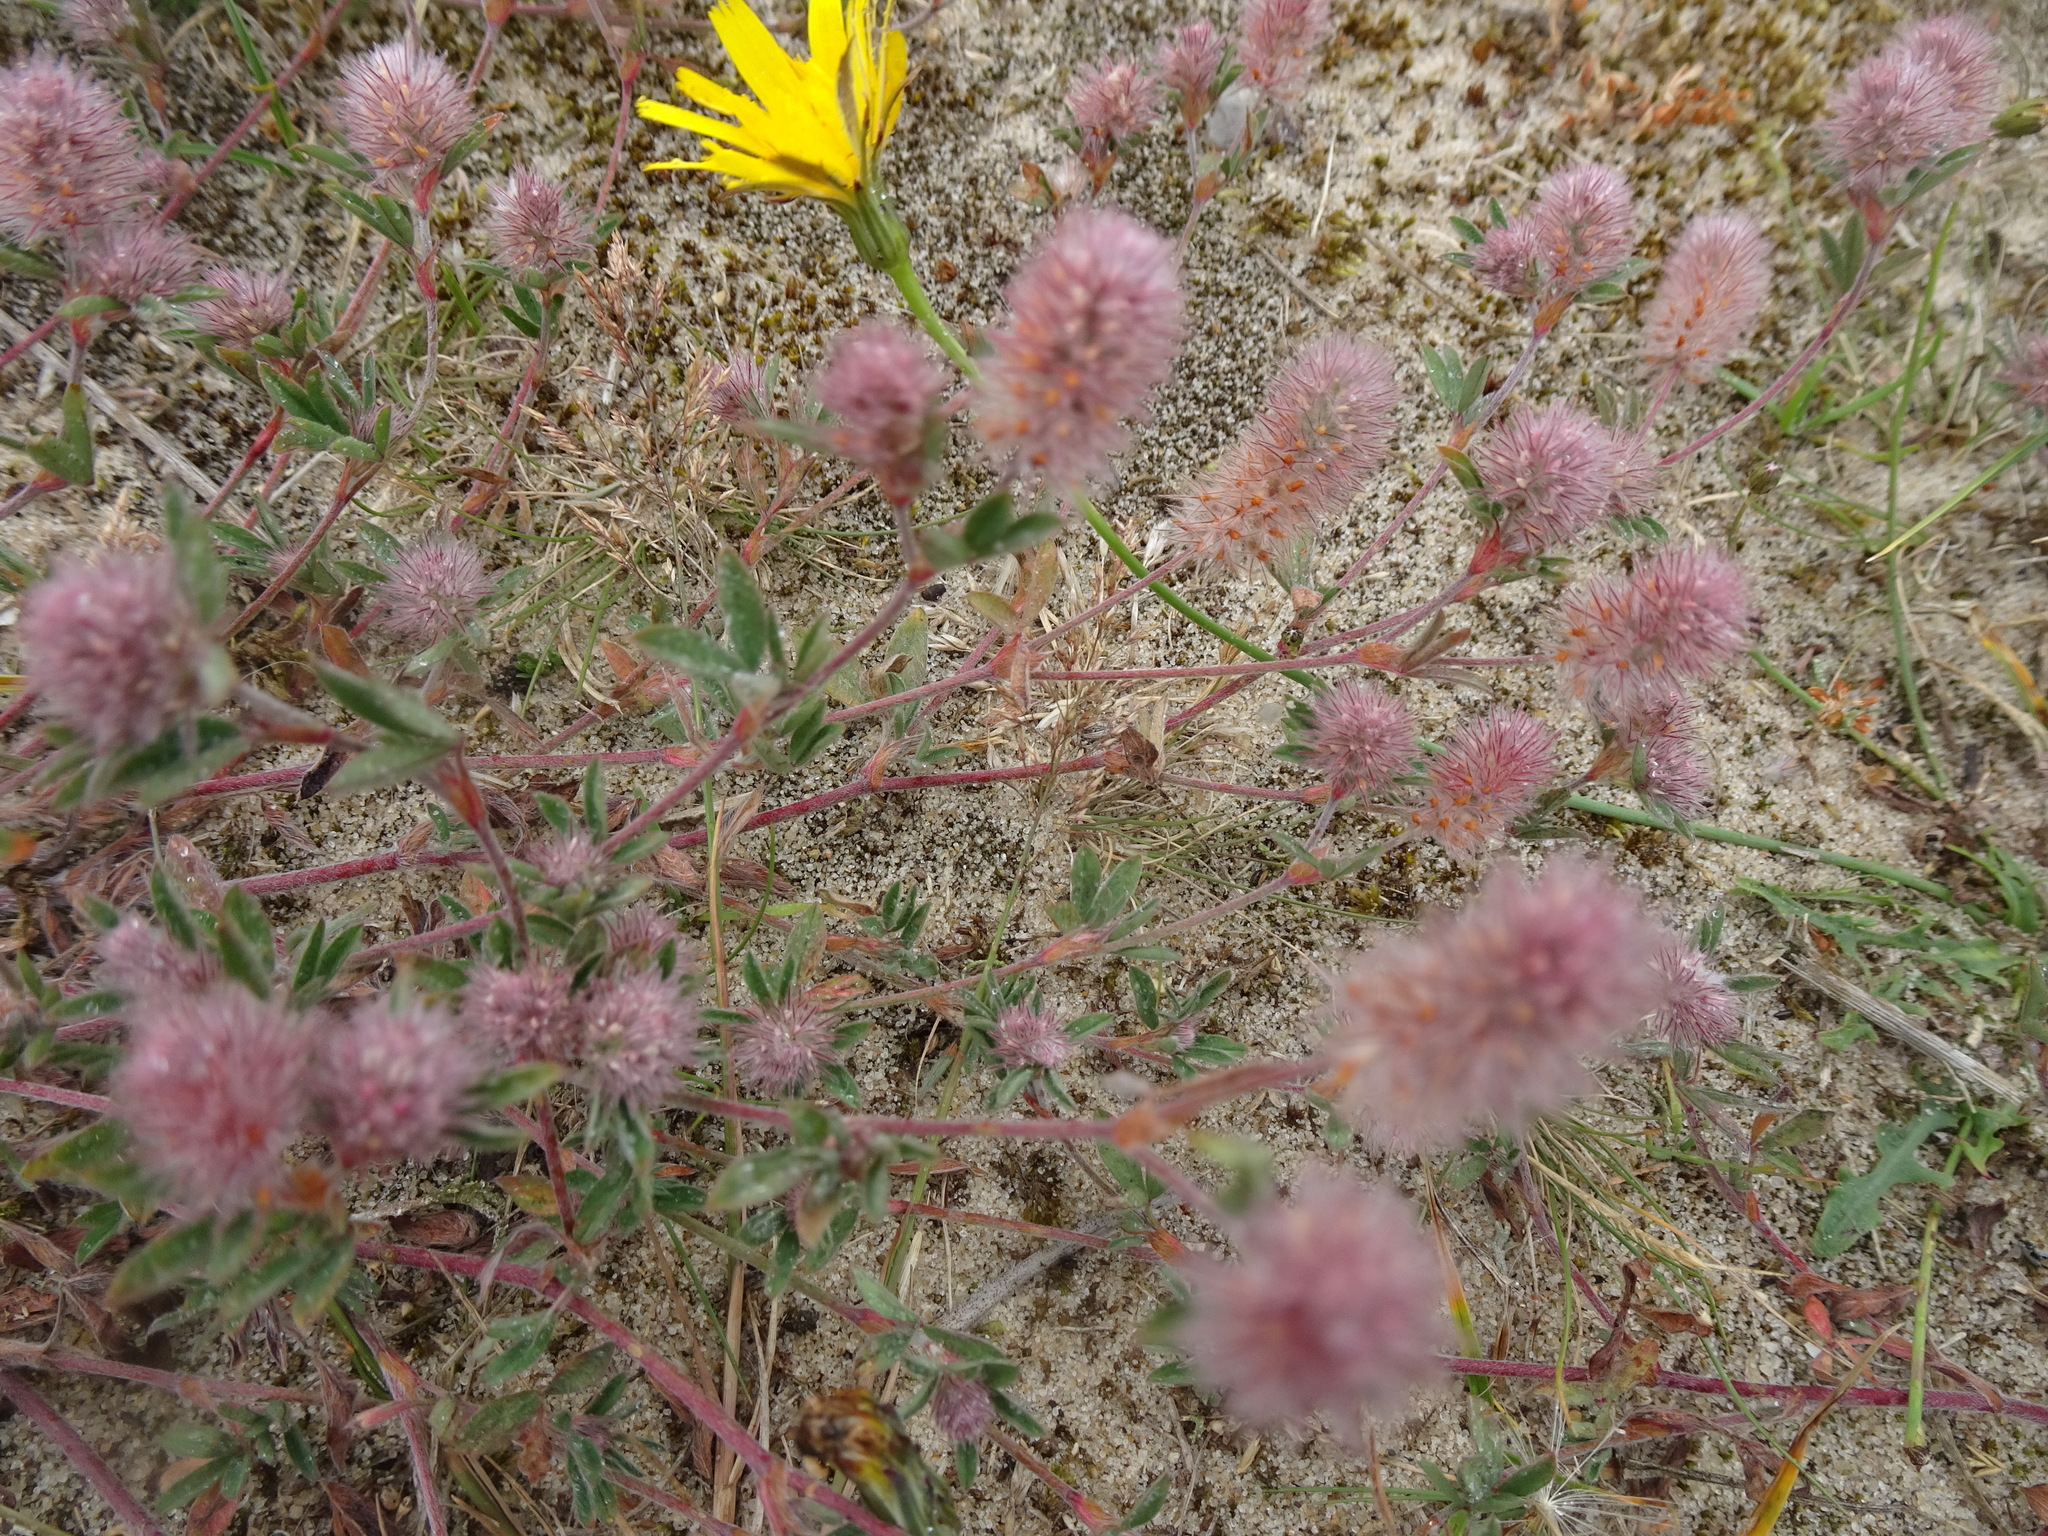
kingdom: Plantae
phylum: Tracheophyta
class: Magnoliopsida
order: Fabales
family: Fabaceae
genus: Trifolium
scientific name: Trifolium arvense
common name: Hare's-foot clover
